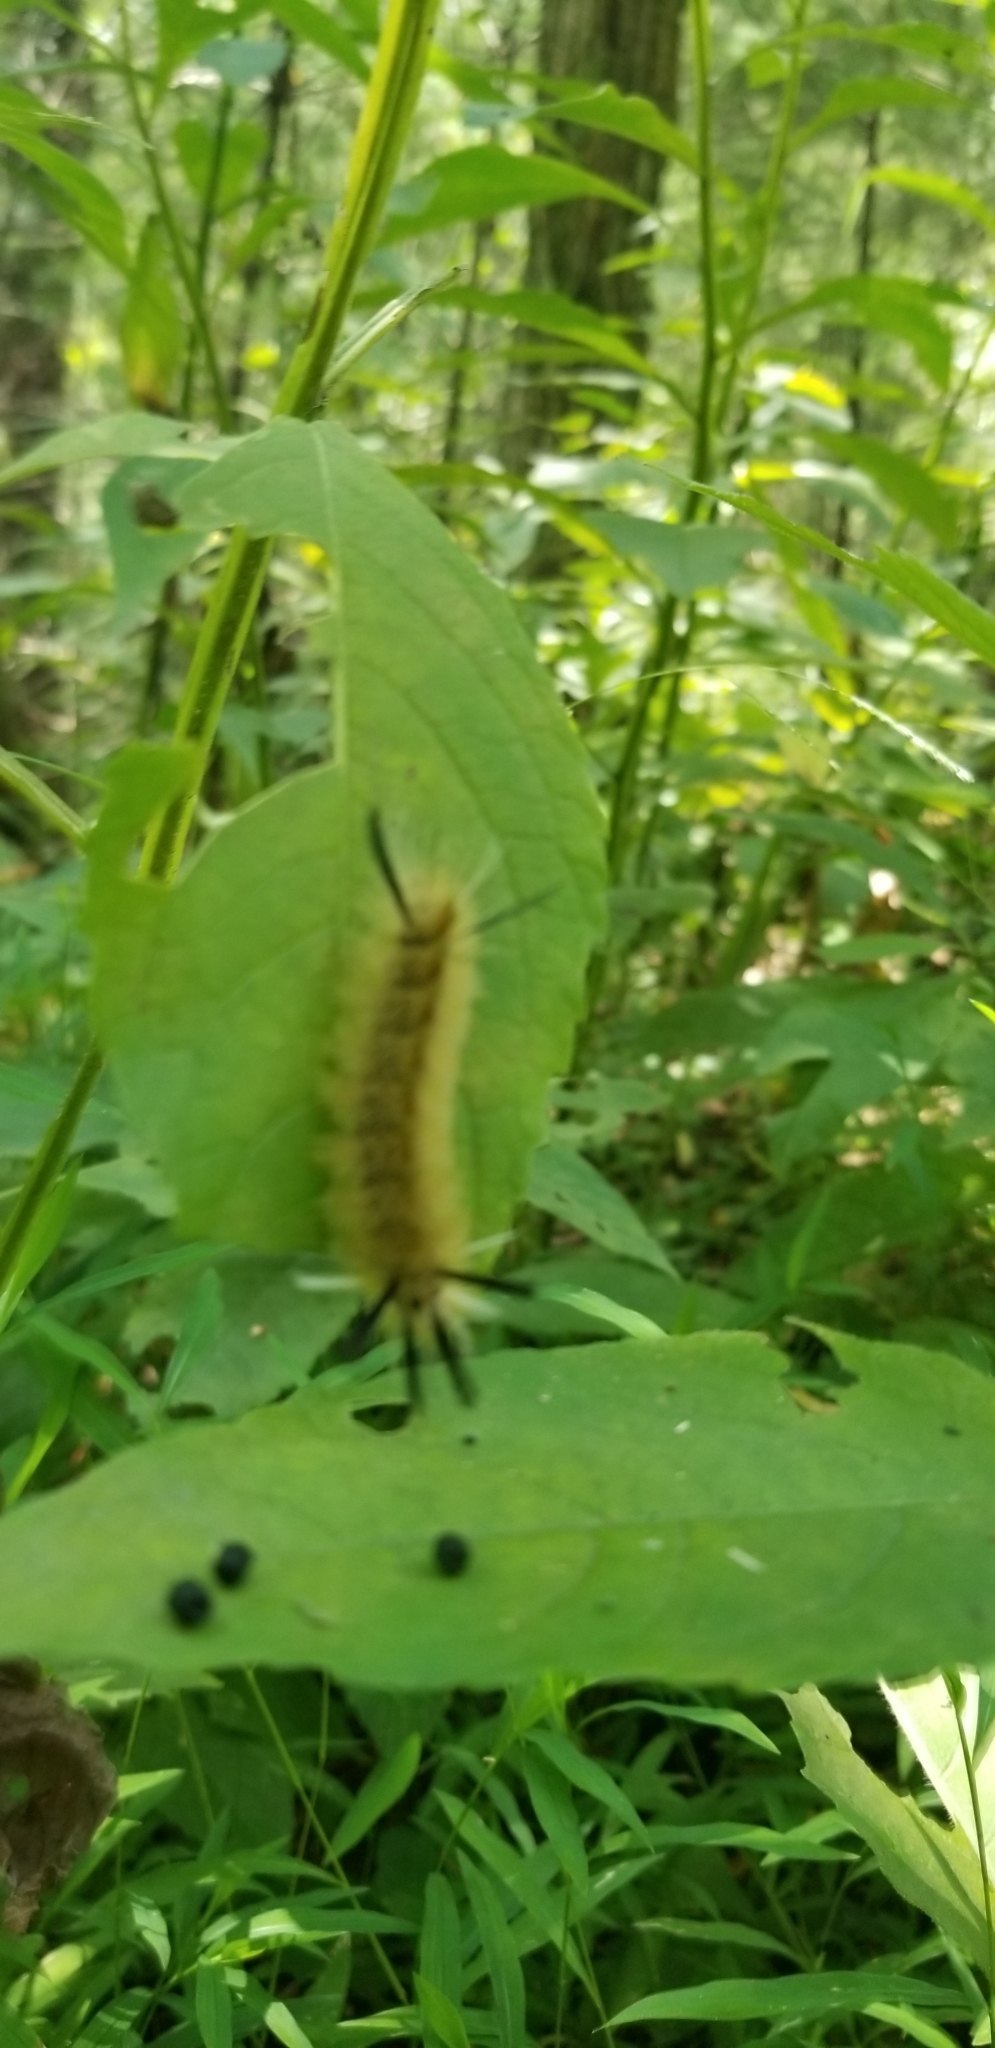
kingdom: Animalia
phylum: Arthropoda
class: Insecta
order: Lepidoptera
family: Erebidae
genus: Halysidota
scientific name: Halysidota tessellaris
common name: Banded tussock moth
